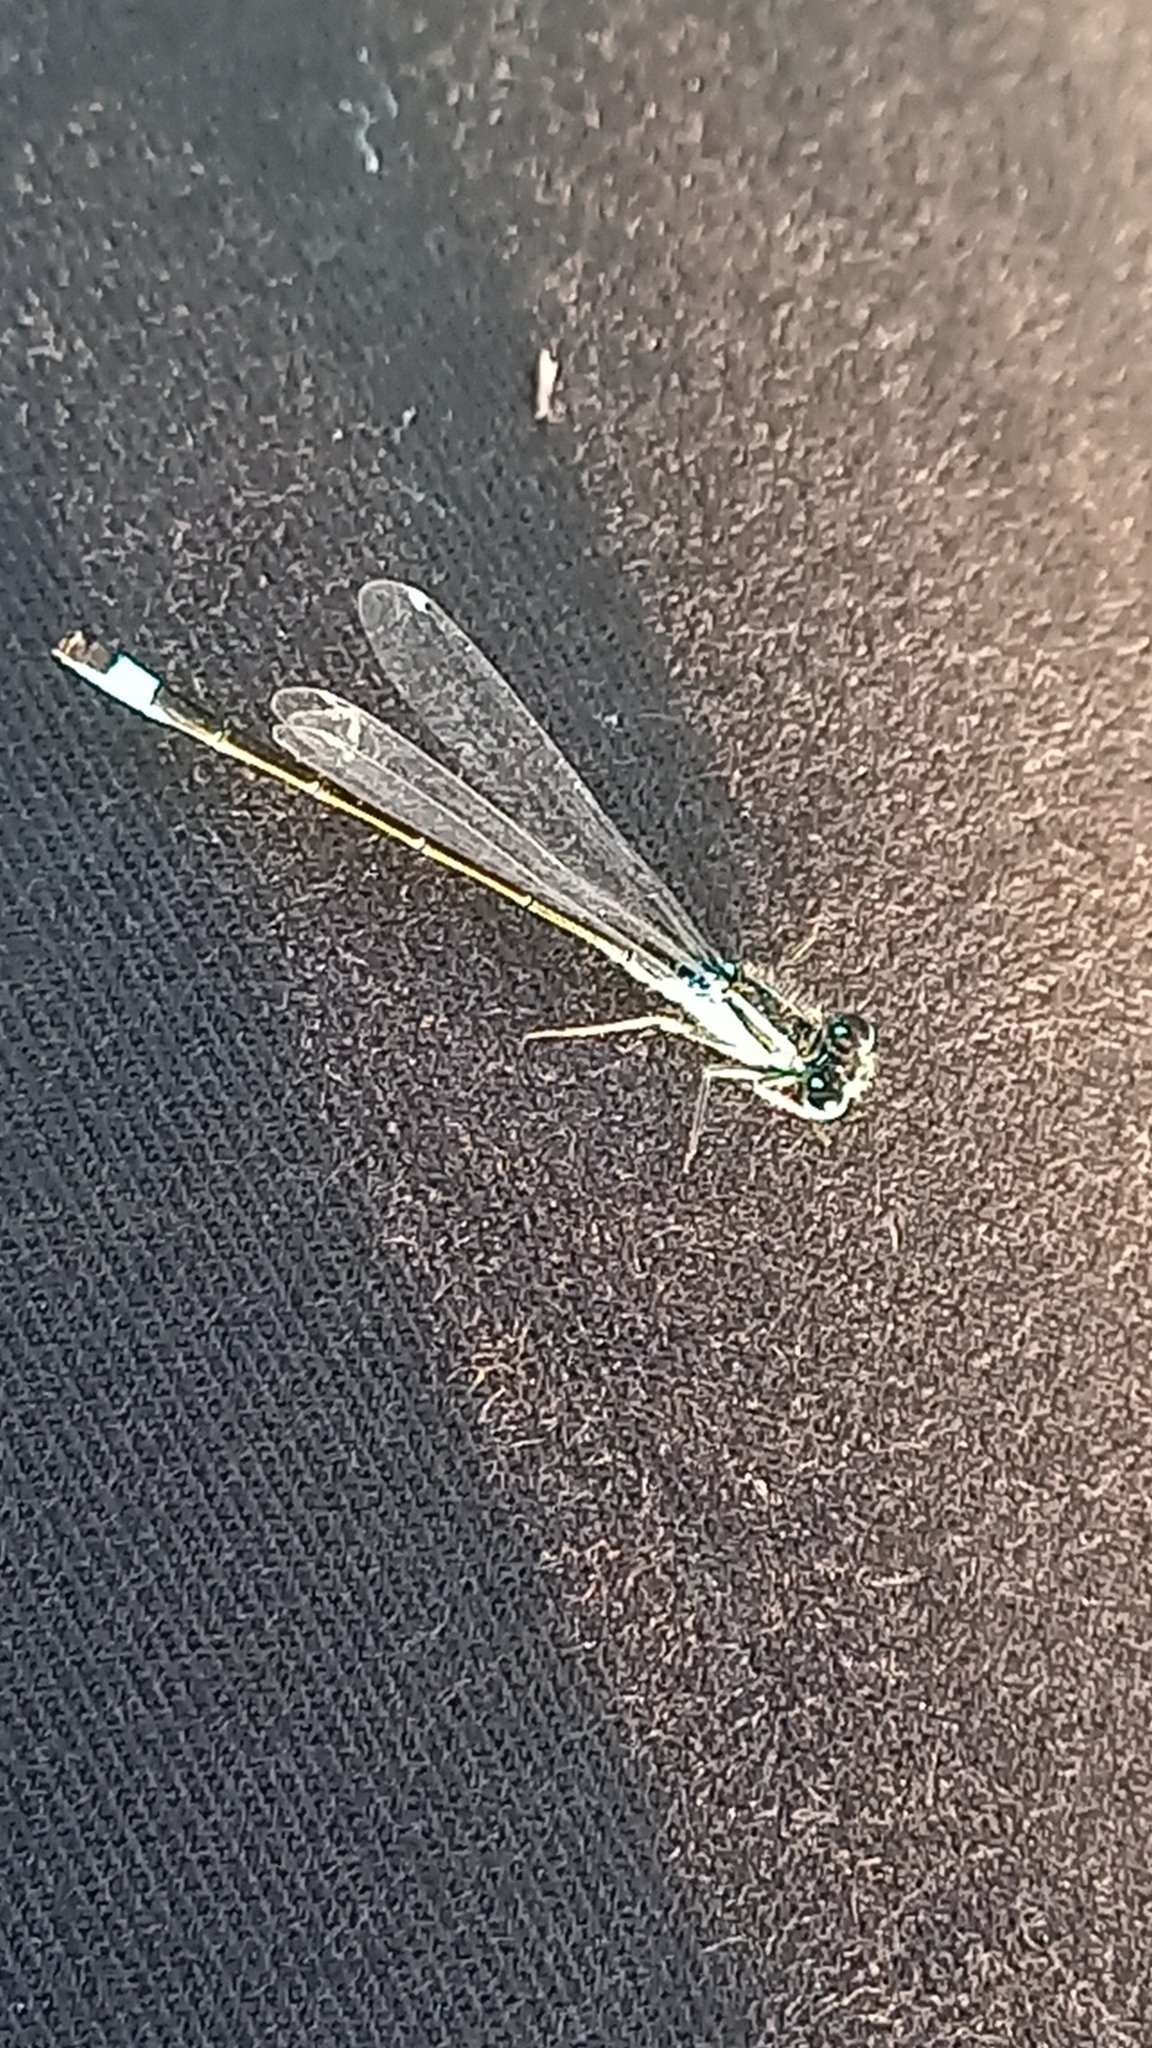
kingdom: Animalia
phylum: Arthropoda
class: Insecta
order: Odonata
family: Coenagrionidae
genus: Ischnura
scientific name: Ischnura elegans
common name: Blue-tailed damselfly
